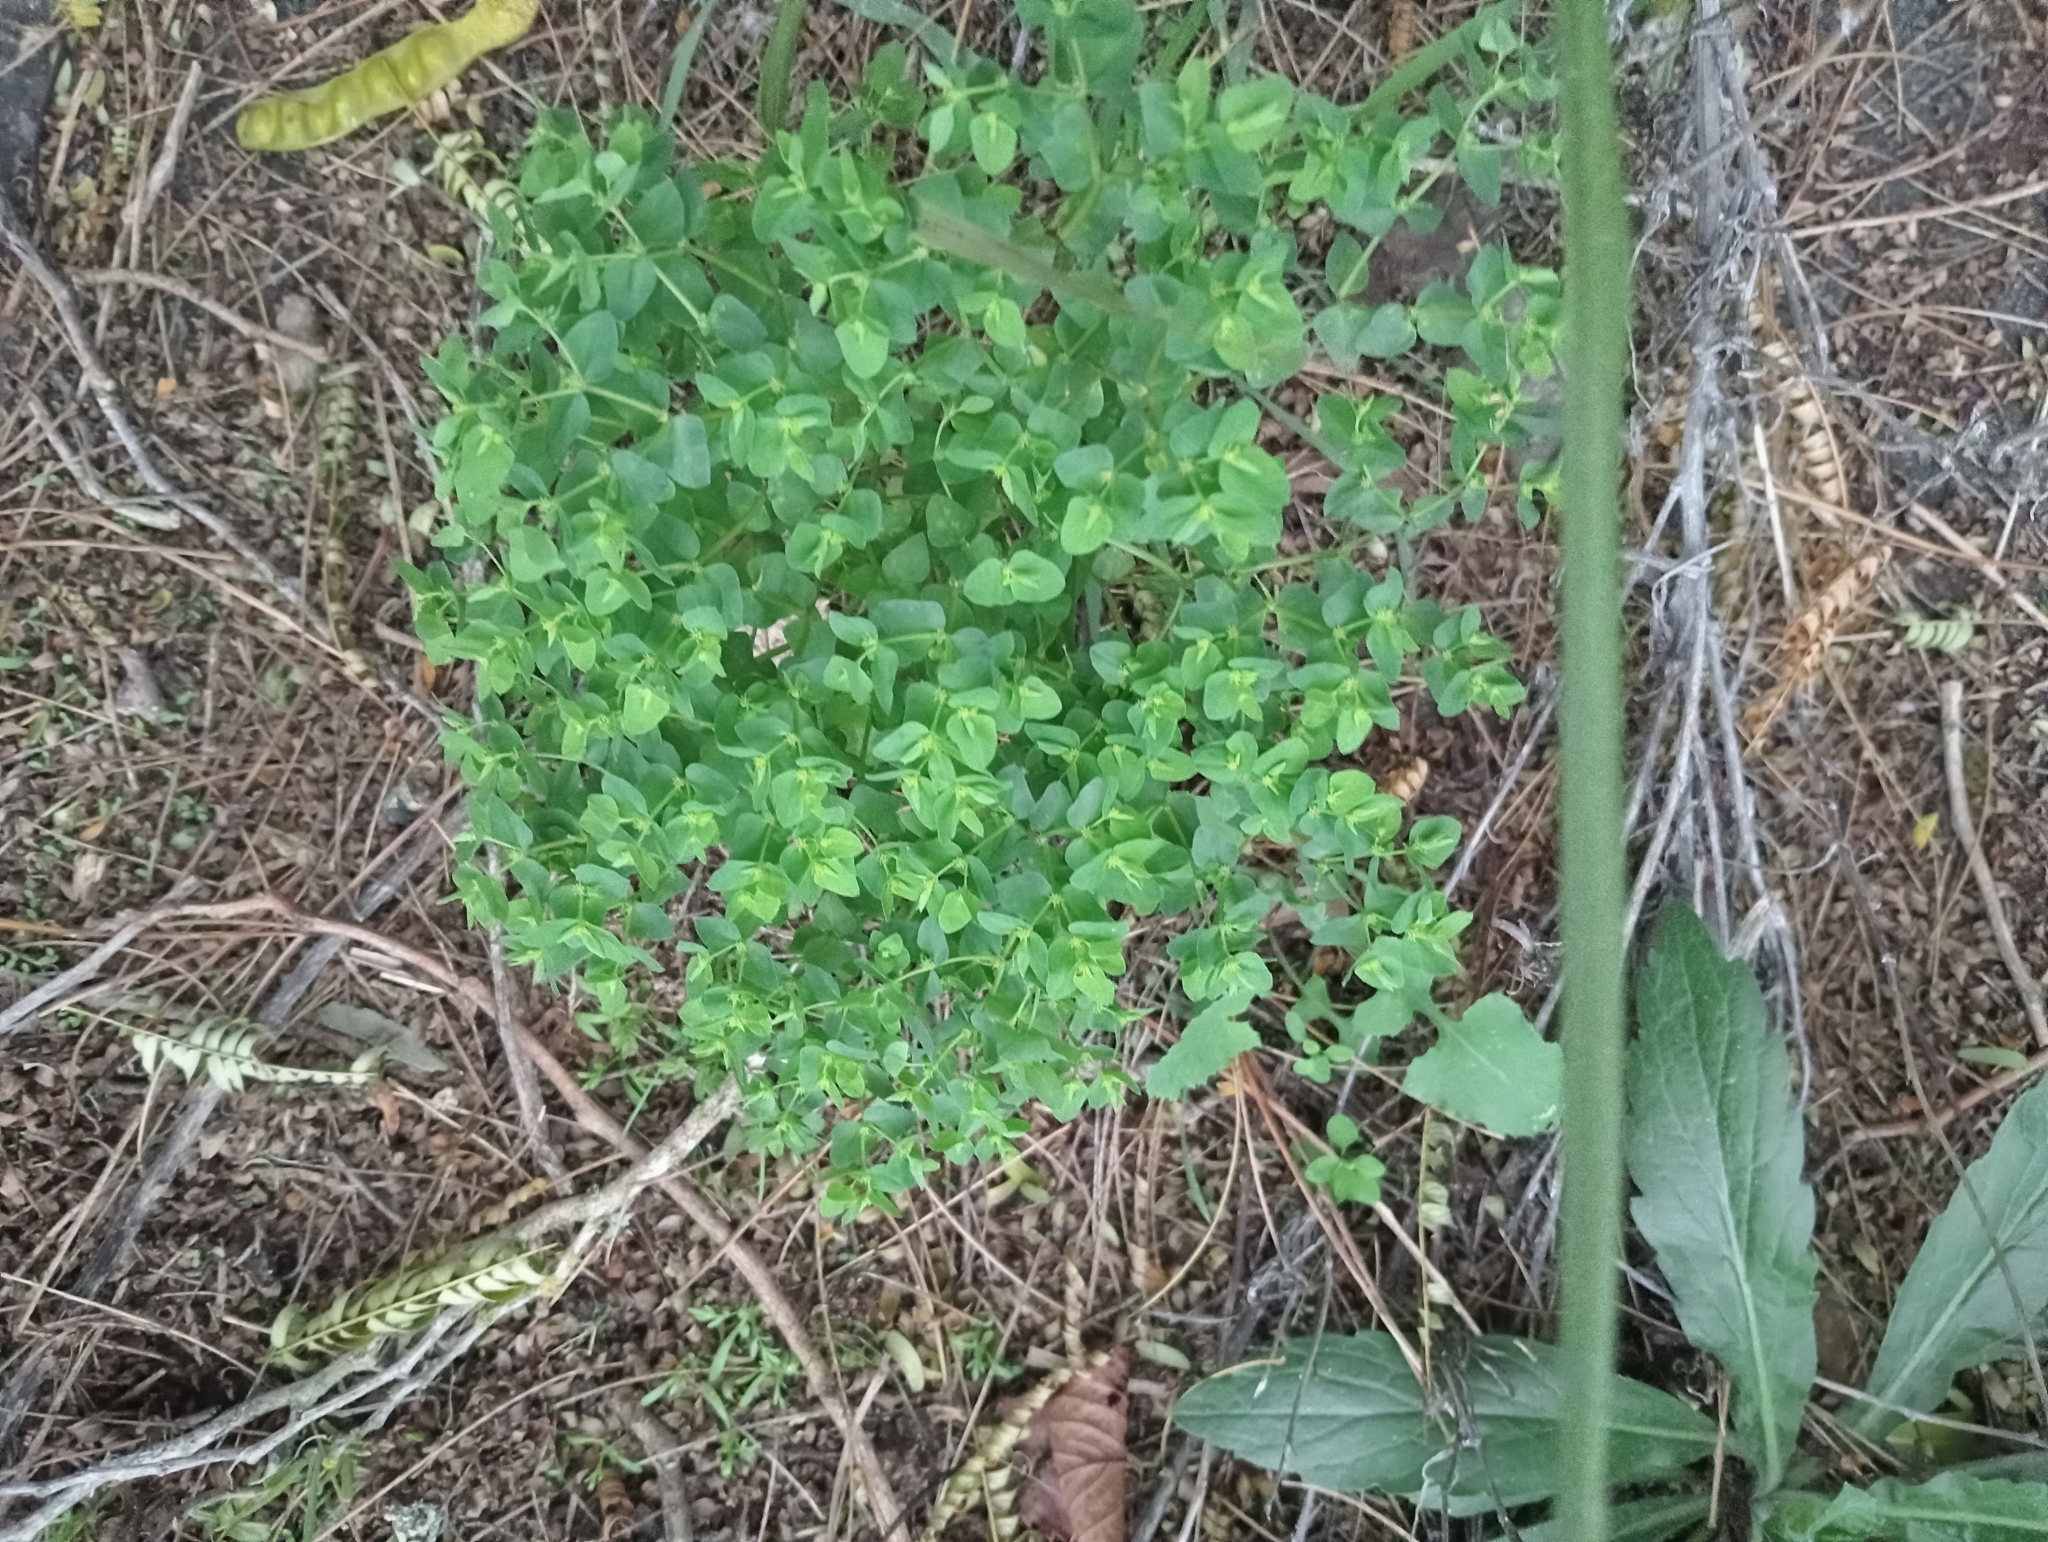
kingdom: Plantae
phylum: Tracheophyta
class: Magnoliopsida
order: Malpighiales
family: Euphorbiaceae
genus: Euphorbia
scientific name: Euphorbia peplus
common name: Petty spurge
